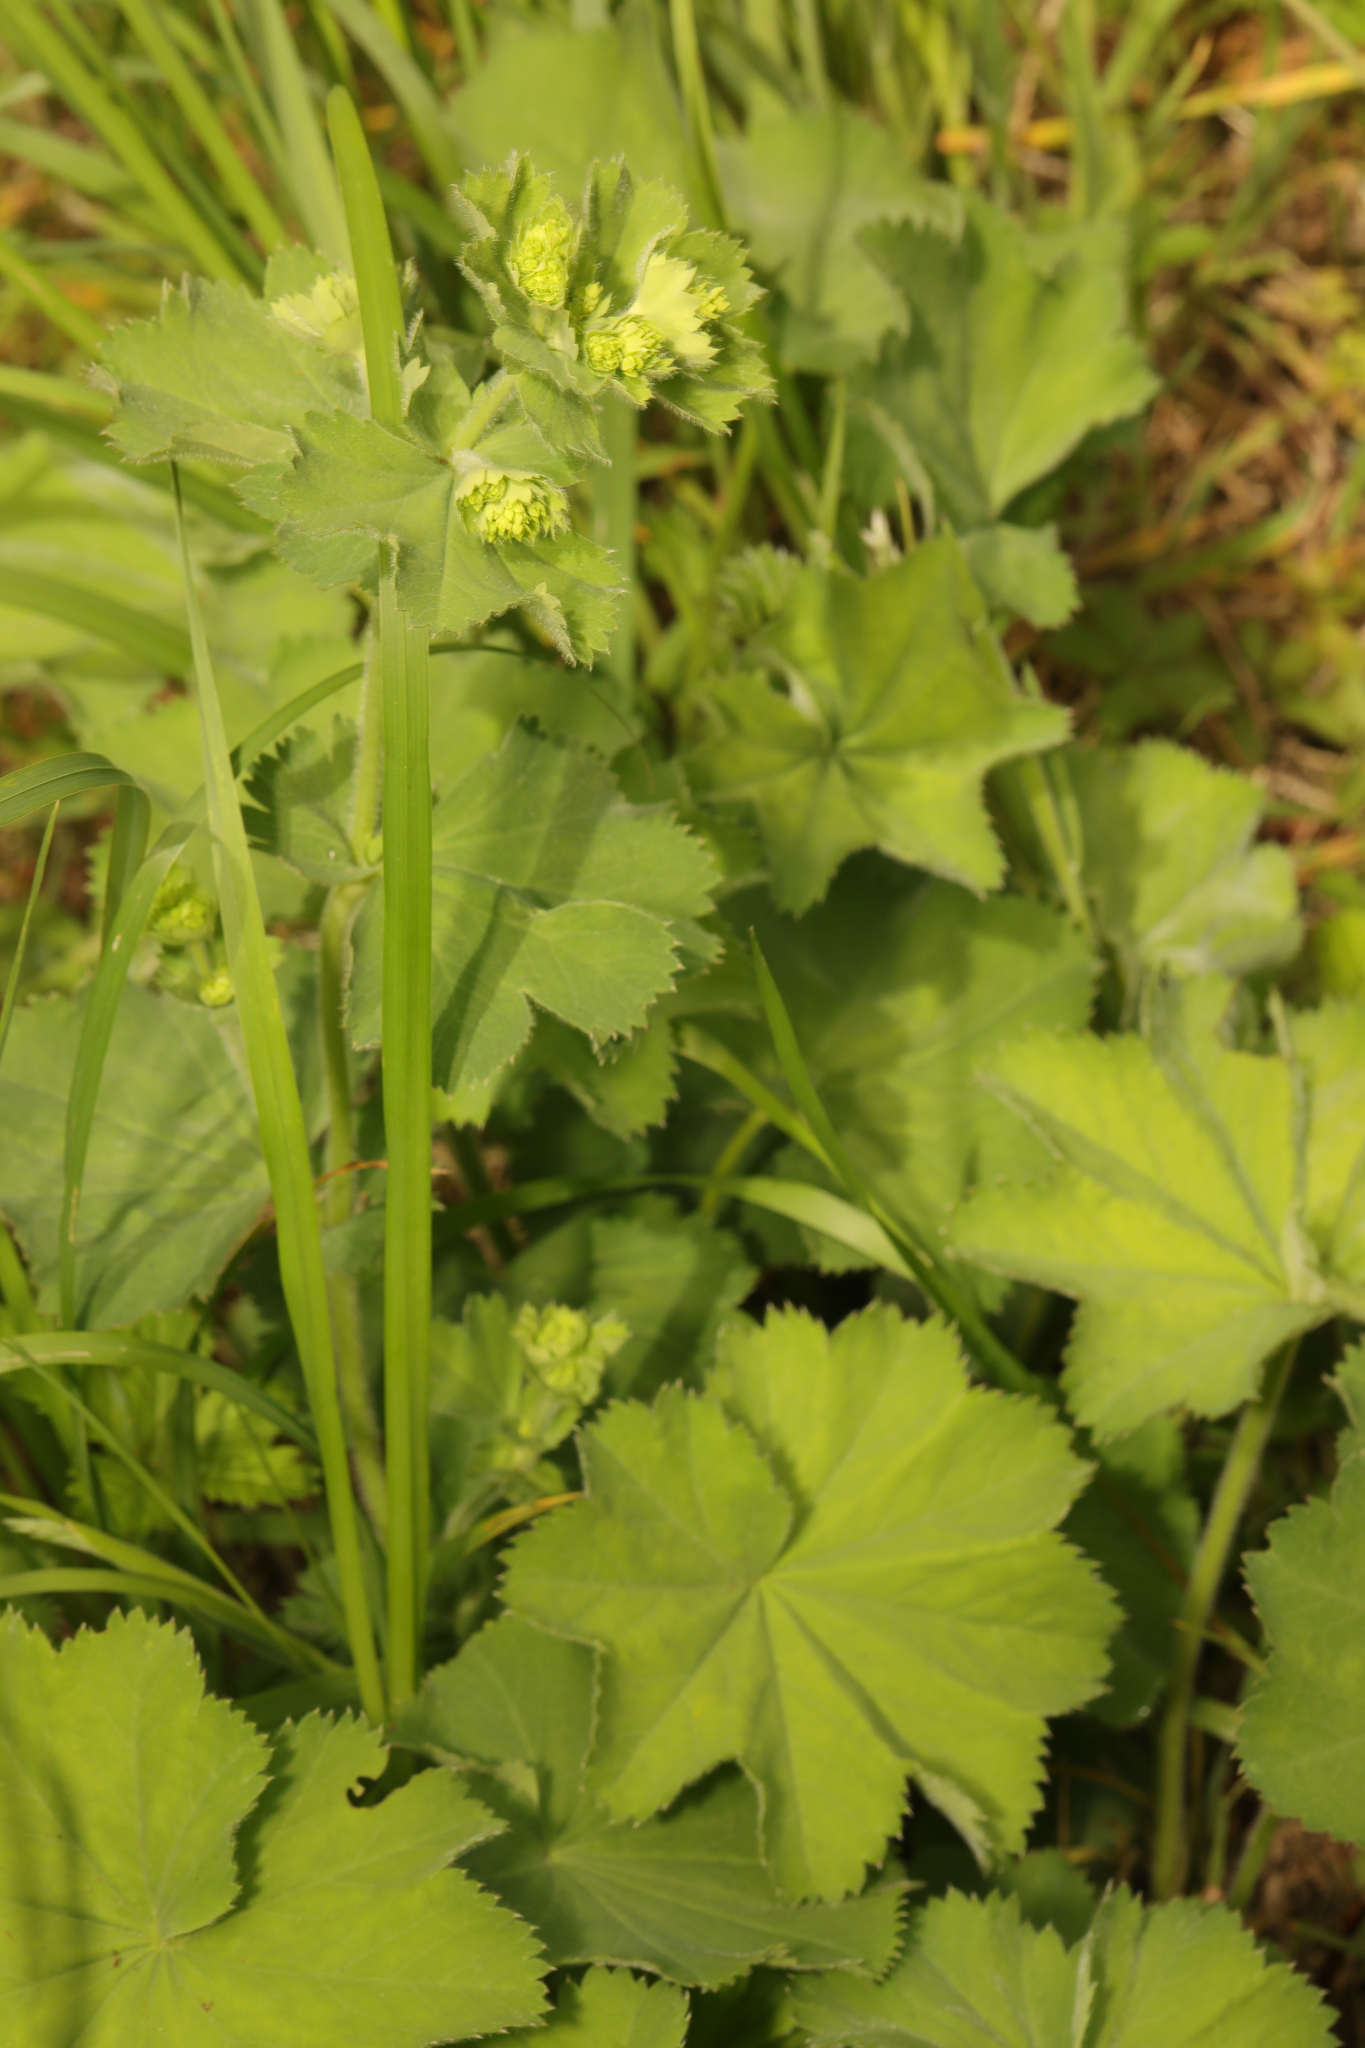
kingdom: Plantae
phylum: Tracheophyta
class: Magnoliopsida
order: Rosales
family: Rosaceae
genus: Alchemilla
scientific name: Alchemilla vulgaris
